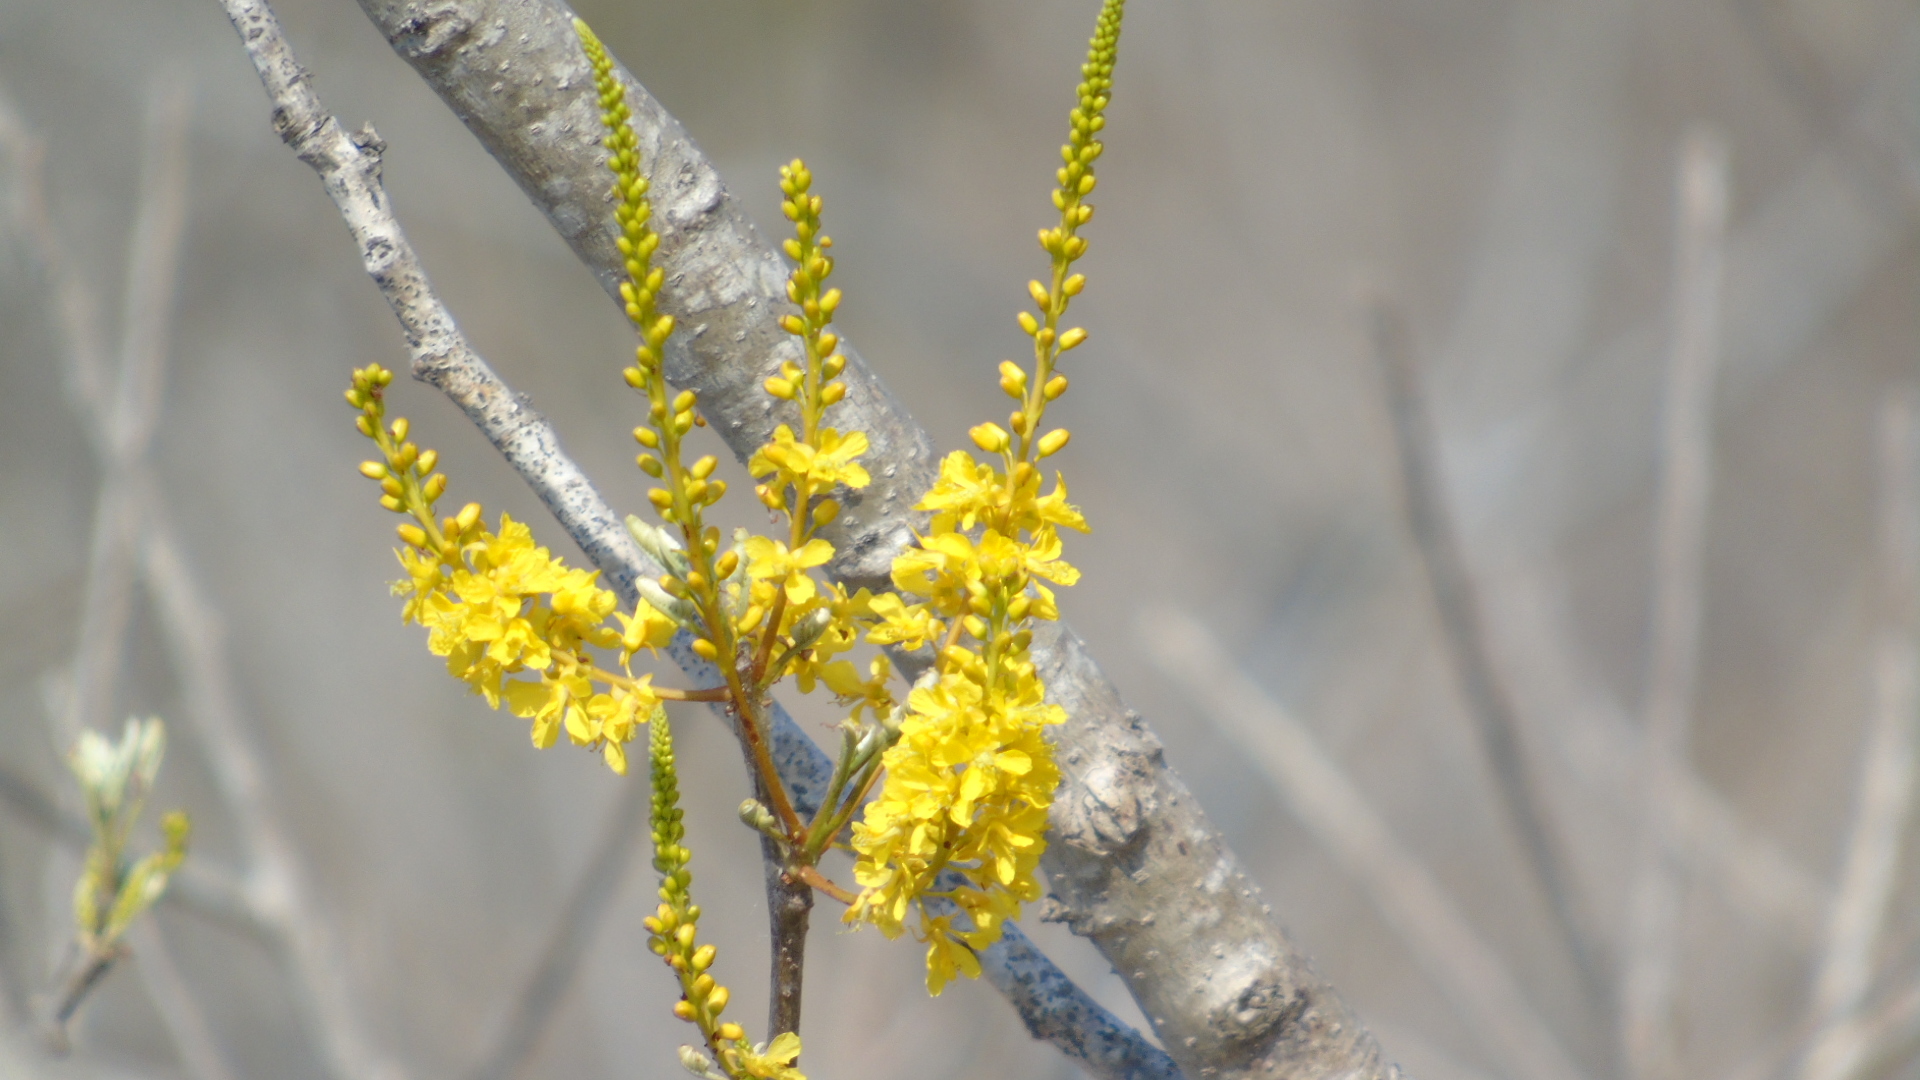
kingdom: Plantae
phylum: Tracheophyta
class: Magnoliopsida
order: Fabales
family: Fabaceae
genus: Conzattia
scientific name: Conzattia sericea
